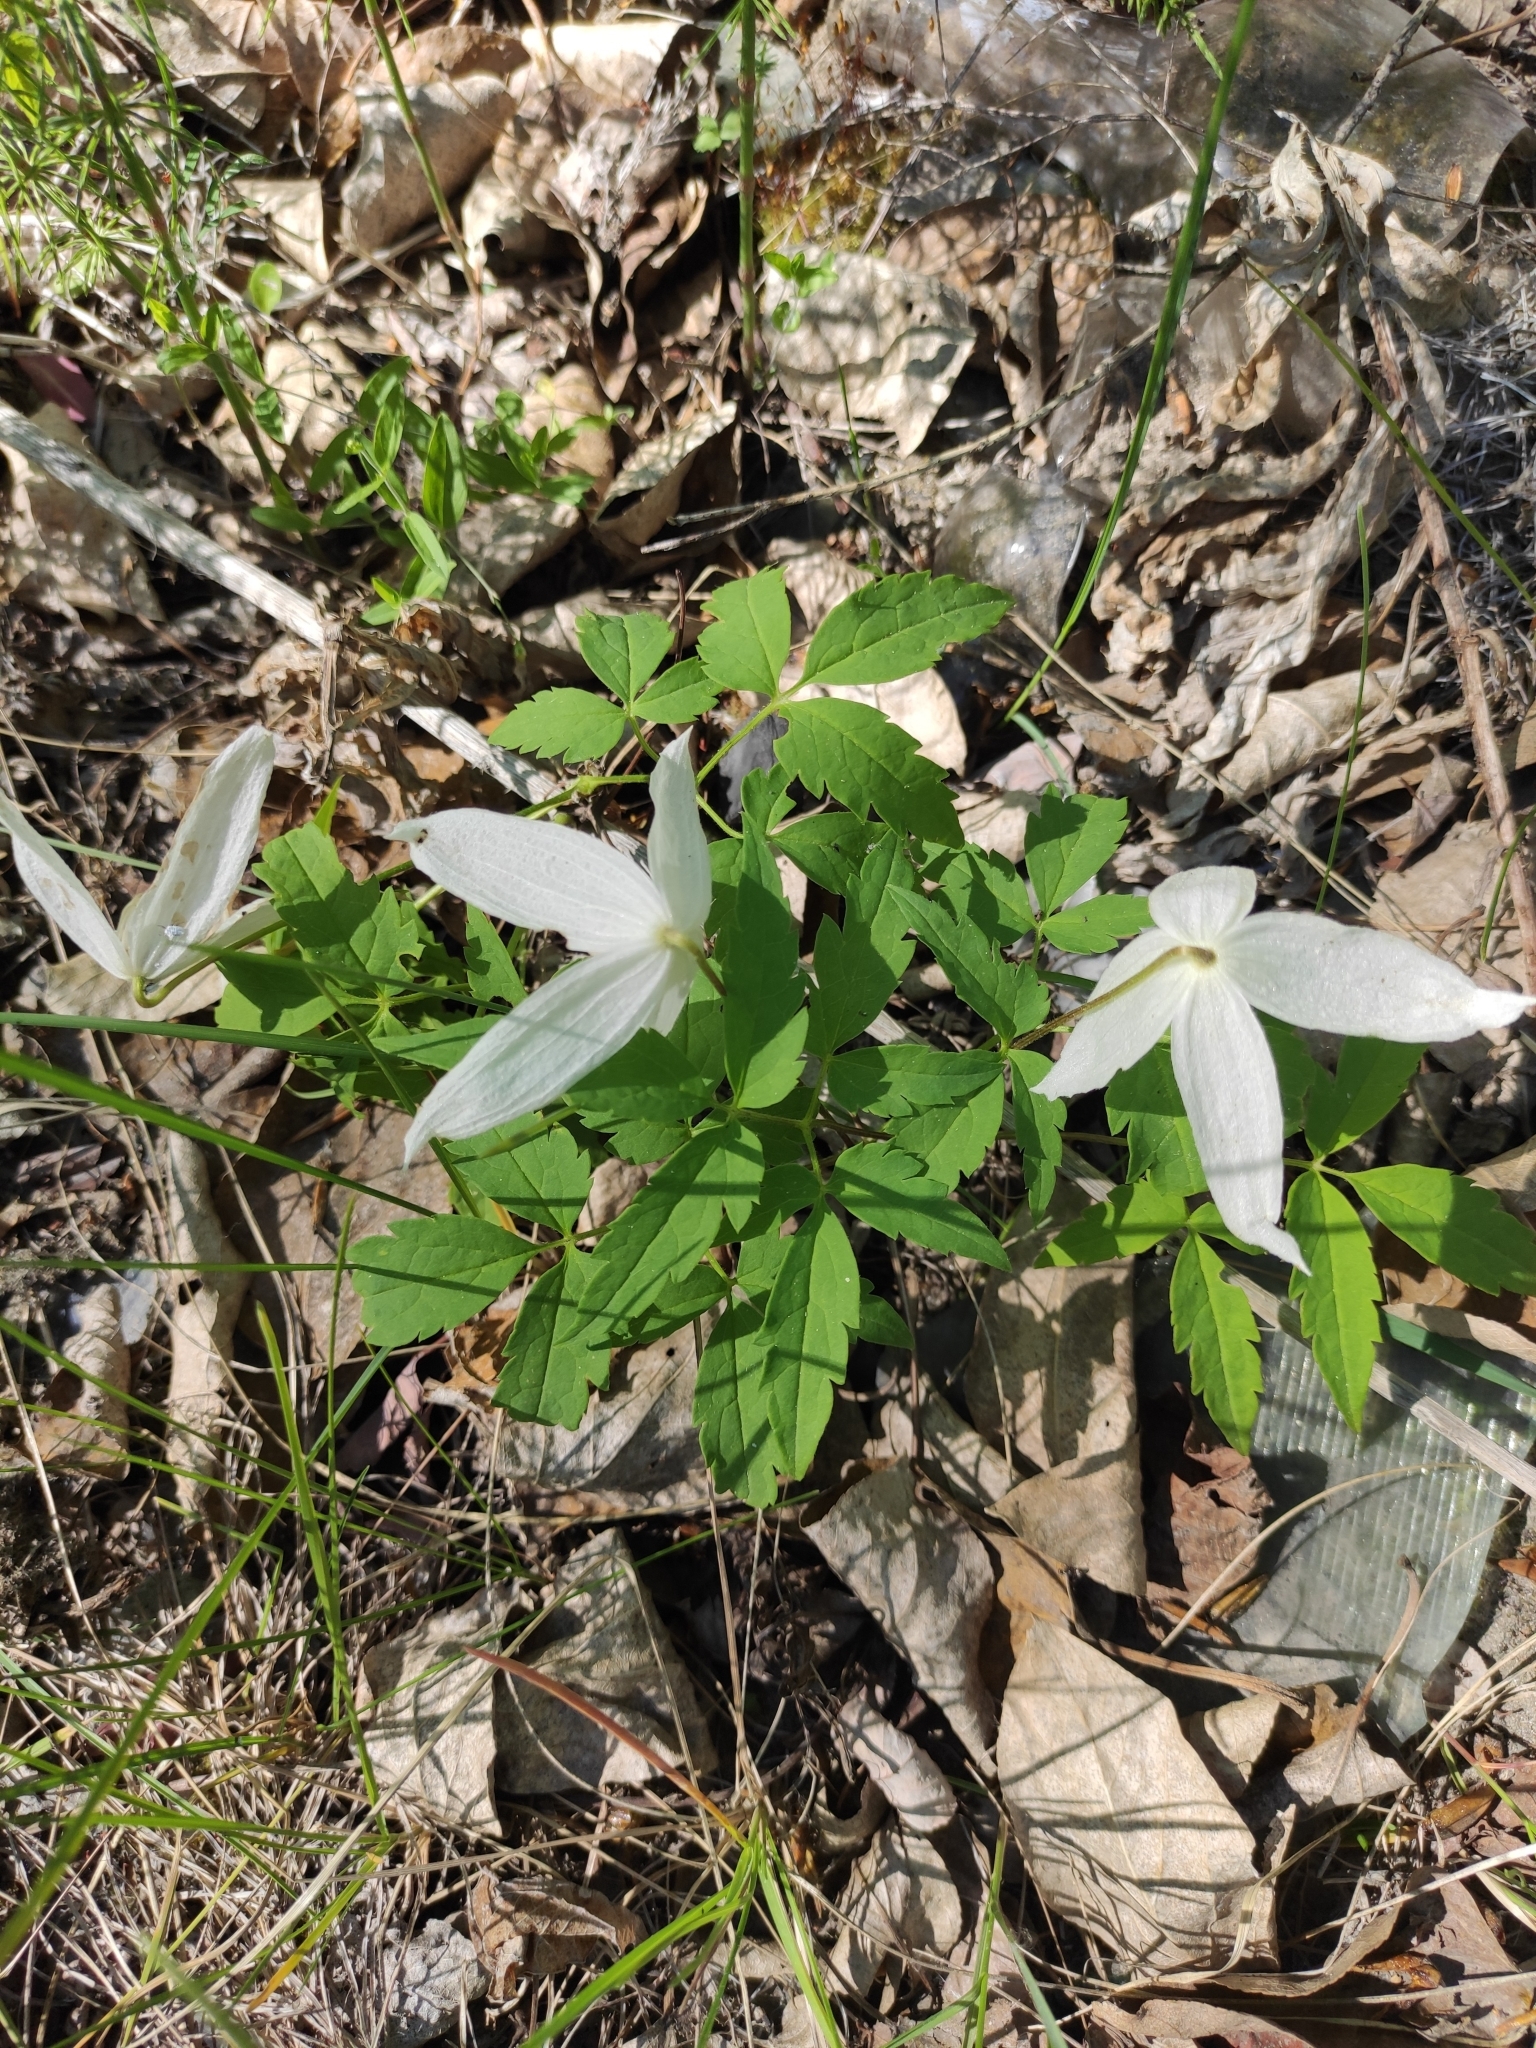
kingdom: Plantae
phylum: Tracheophyta
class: Magnoliopsida
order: Ranunculales
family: Ranunculaceae
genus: Clematis
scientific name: Clematis sibirica
